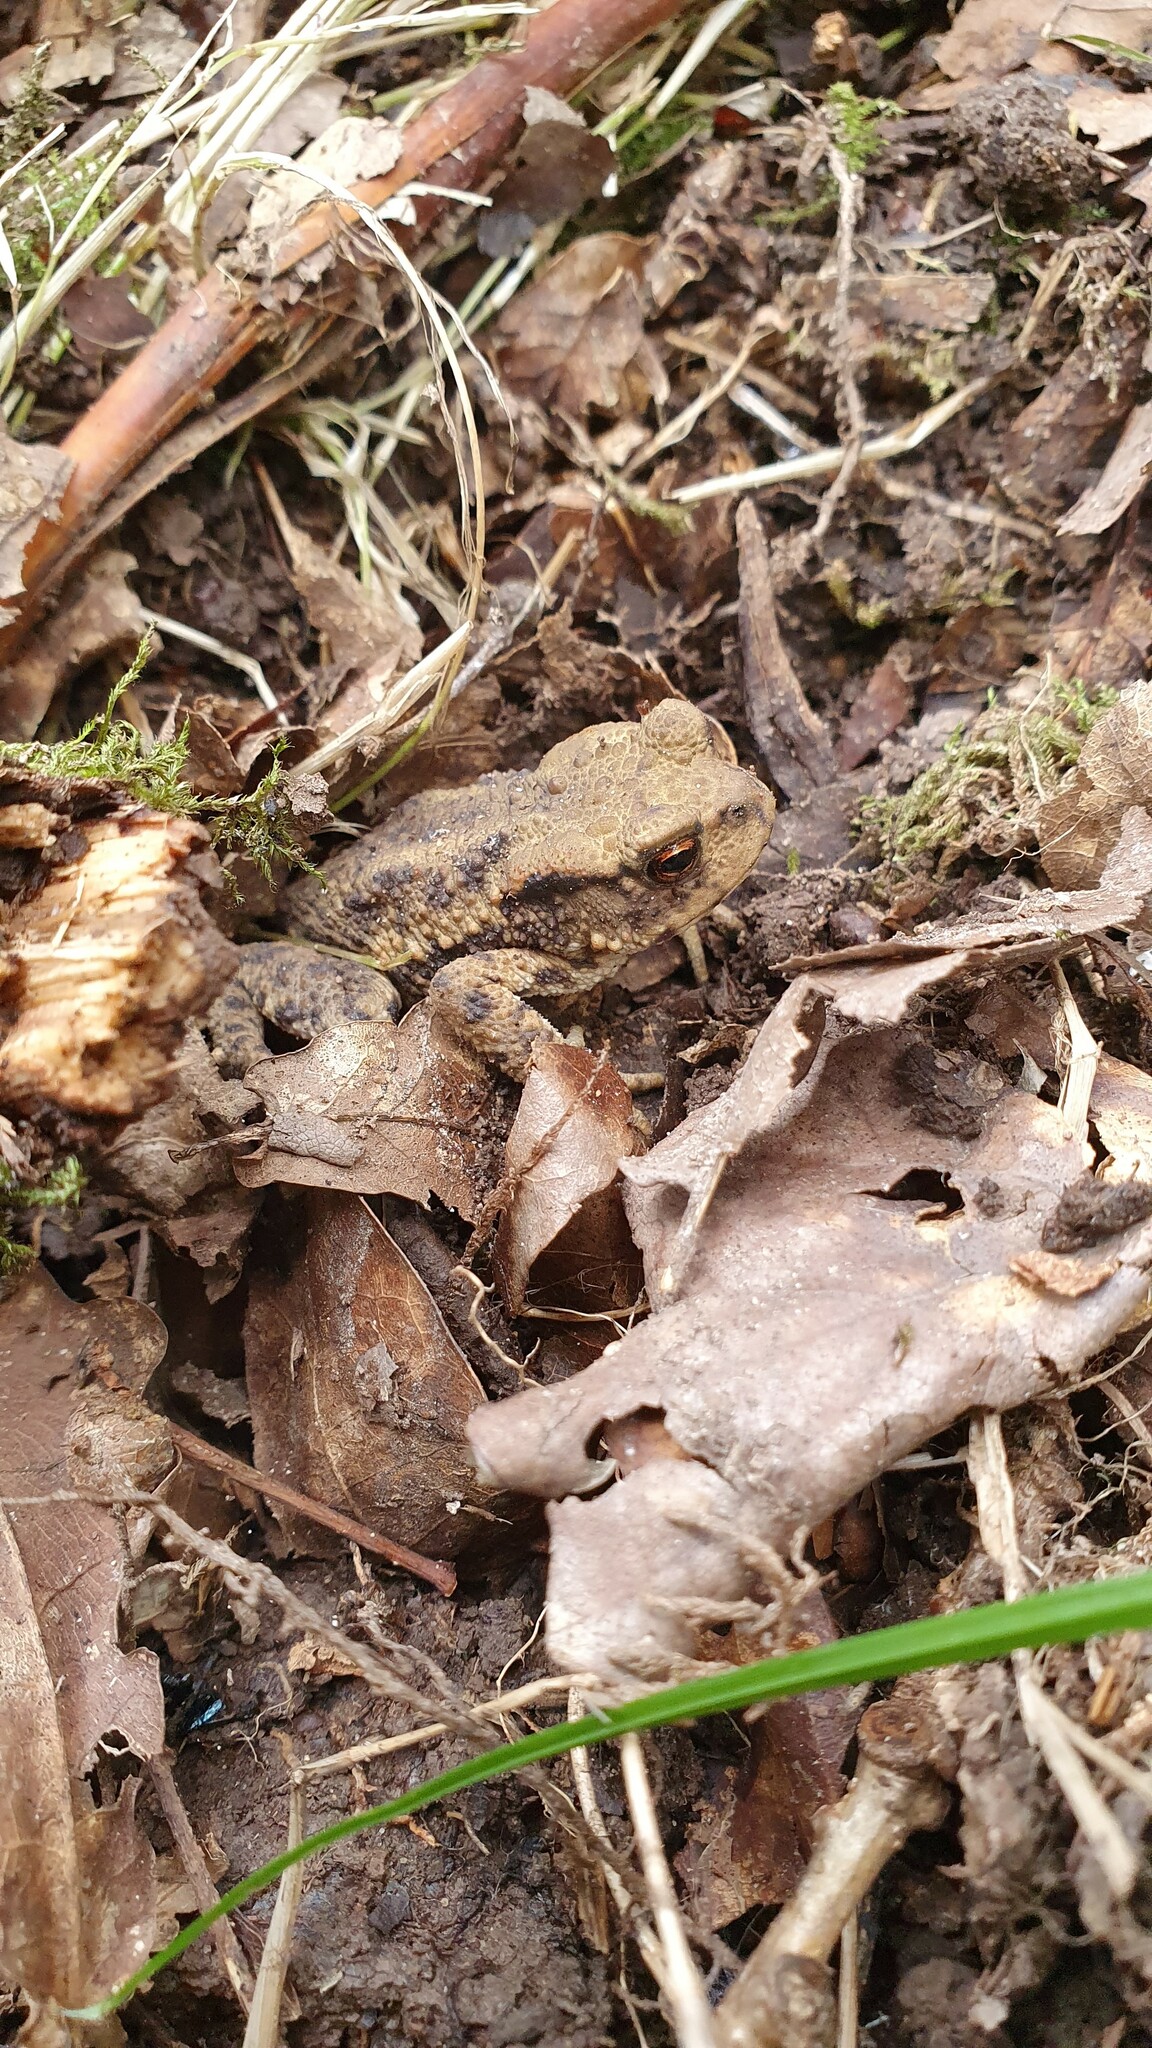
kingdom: Animalia
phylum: Chordata
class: Amphibia
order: Anura
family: Bufonidae
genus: Bufo
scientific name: Bufo bufo
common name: Common toad
